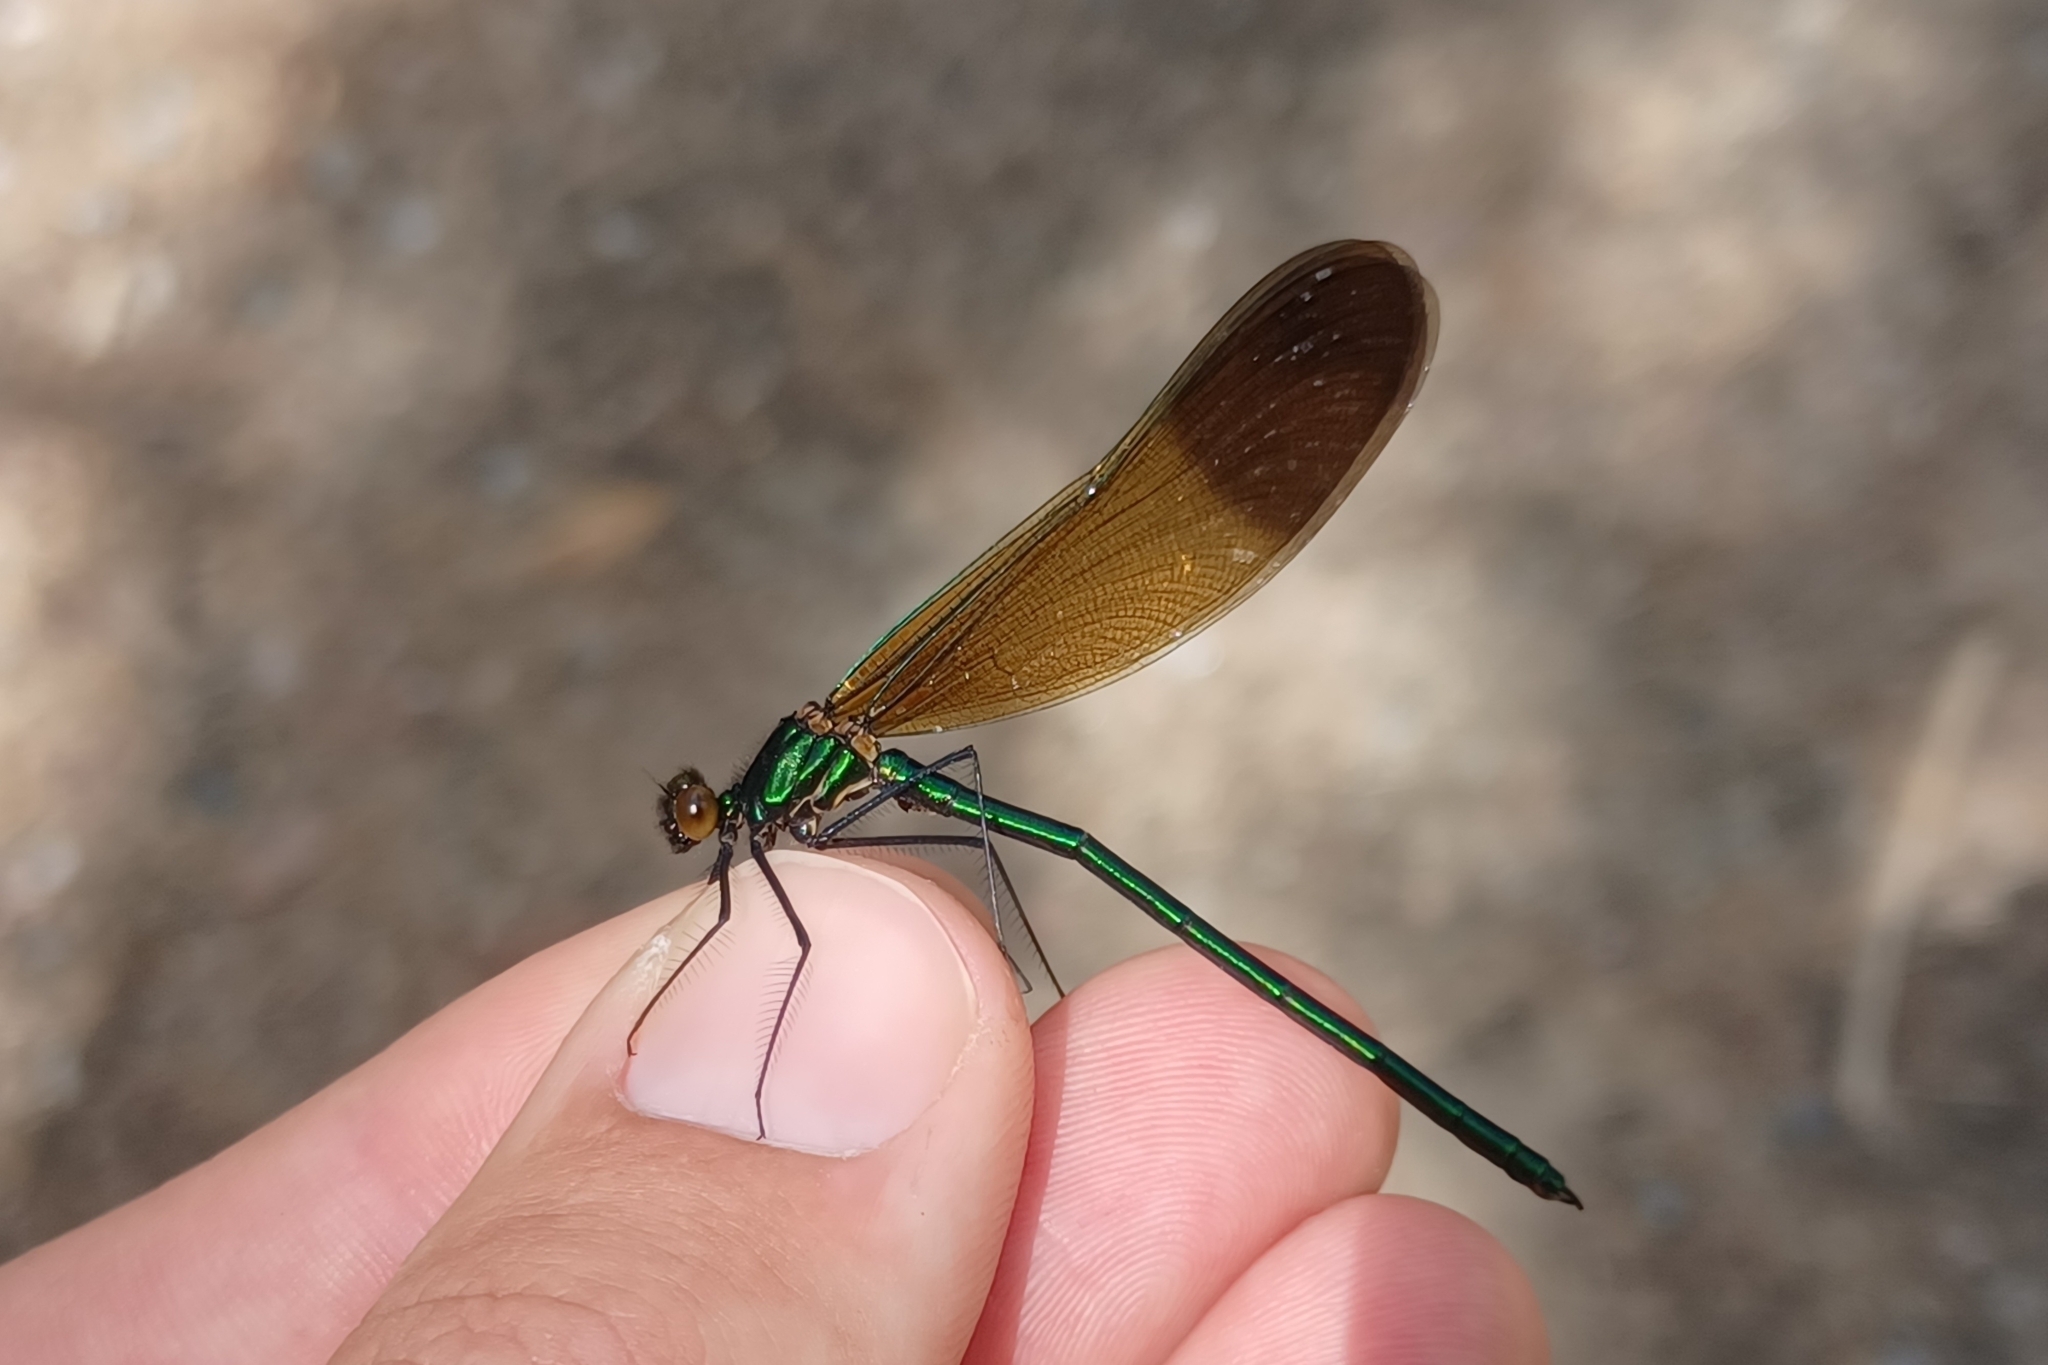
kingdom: Animalia
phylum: Arthropoda
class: Insecta
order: Odonata
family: Calopterygidae
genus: Calopteryx
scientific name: Calopteryx aequabilis
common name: River jewelwing
